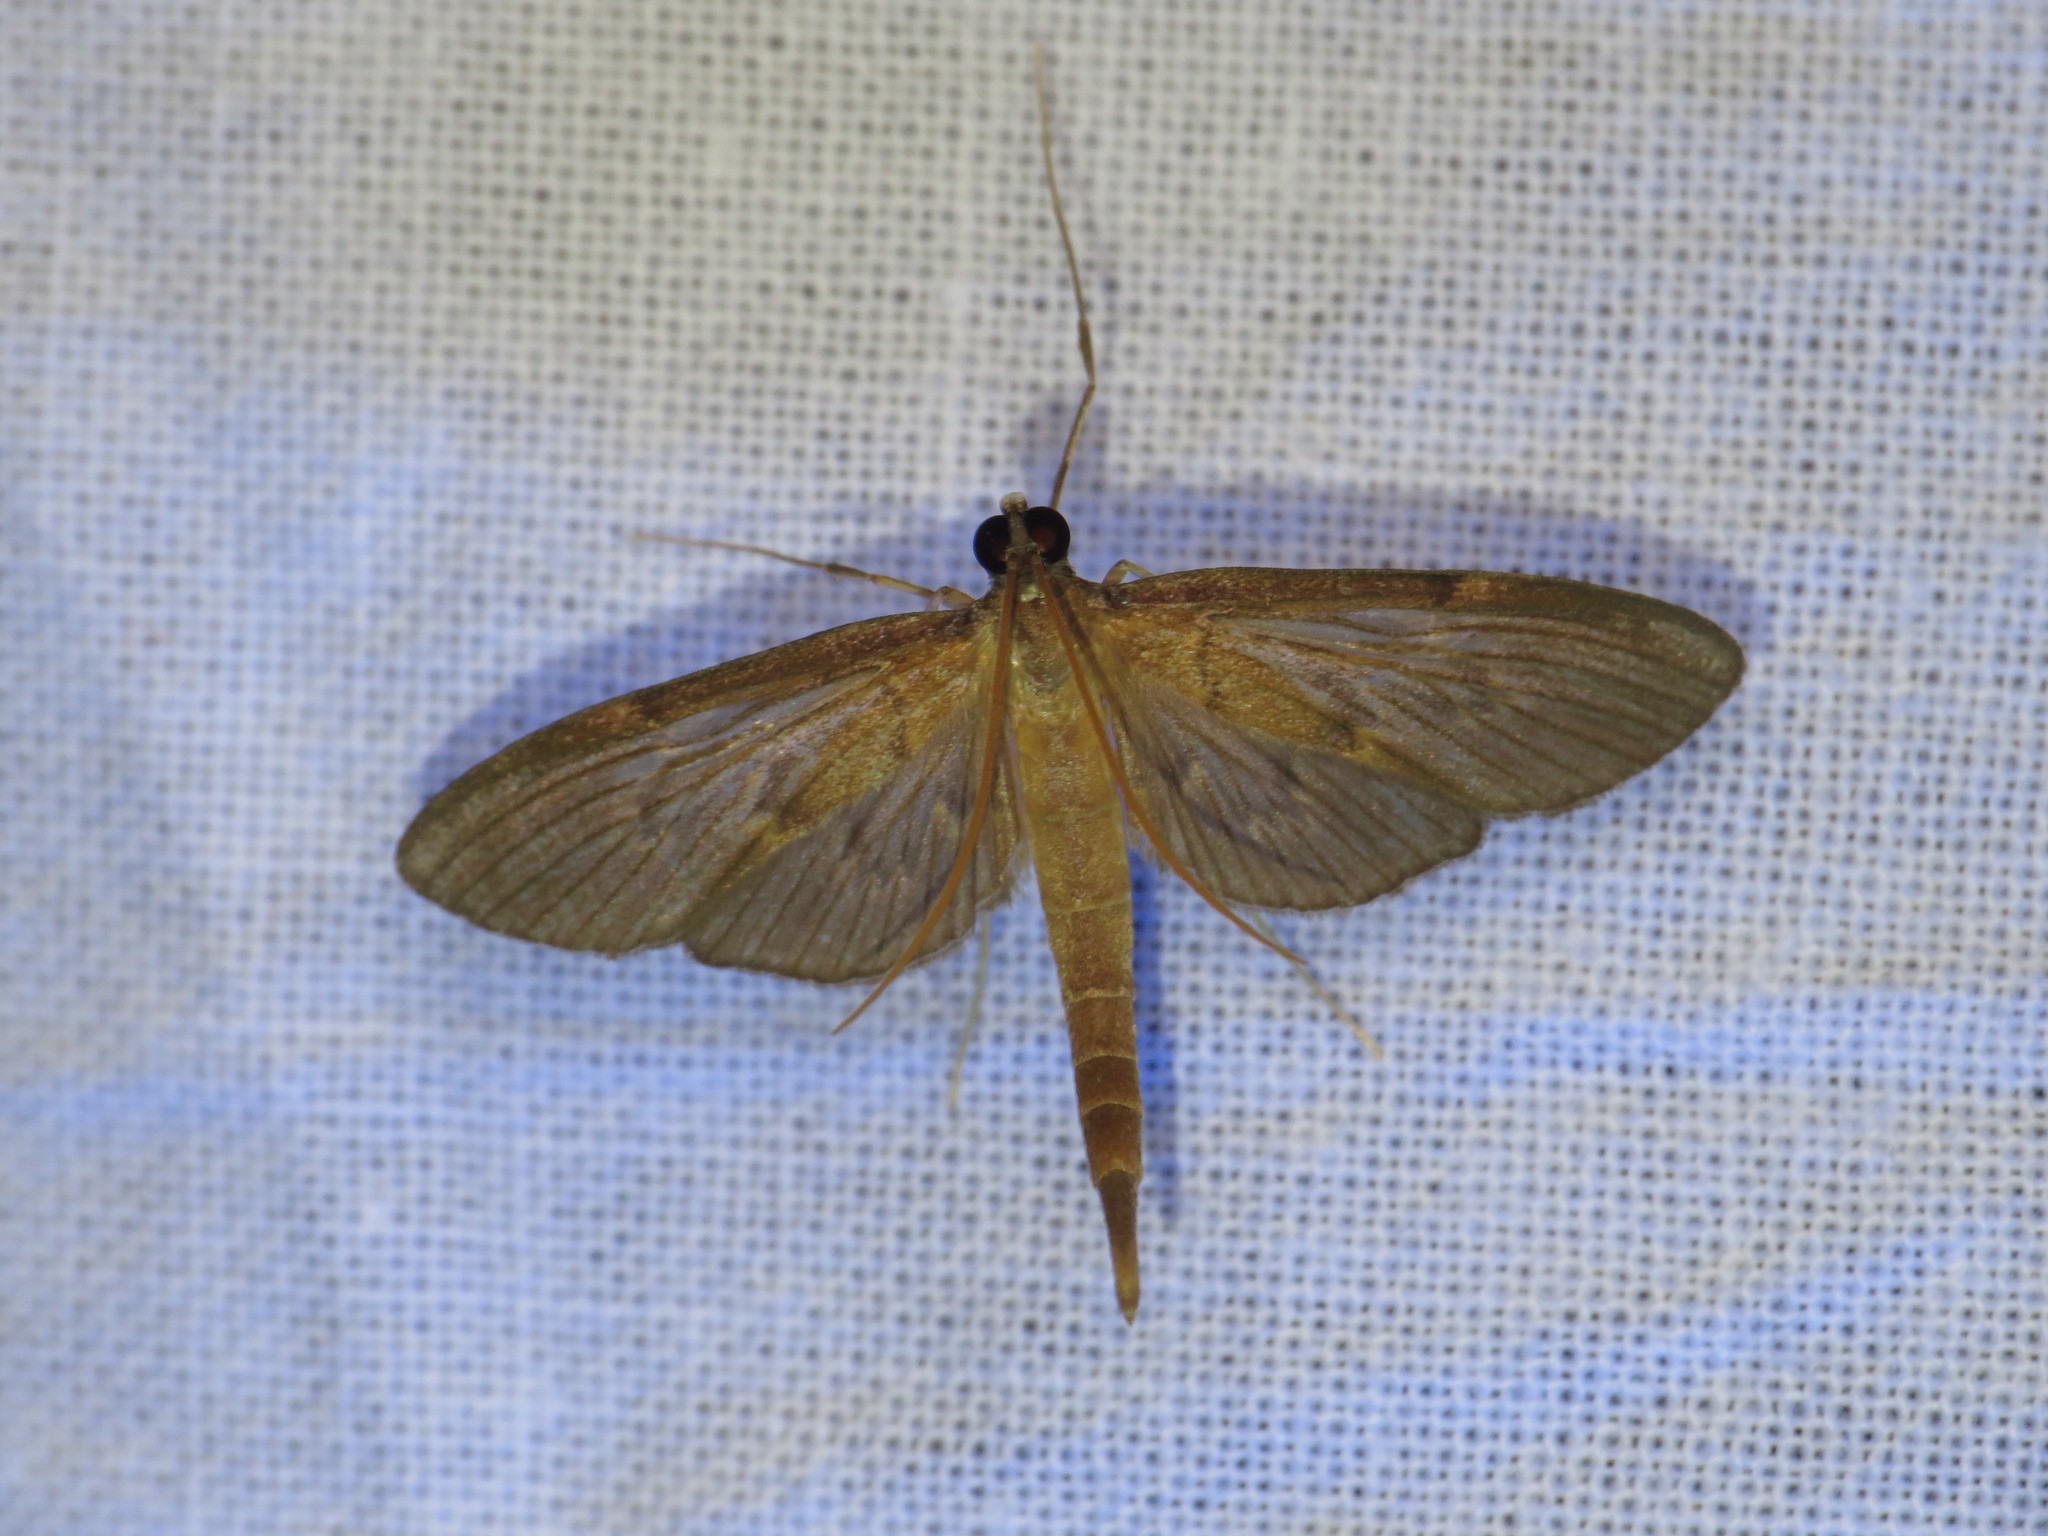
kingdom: Animalia
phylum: Arthropoda
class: Insecta
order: Lepidoptera
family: Crambidae
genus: Hymenoptychis
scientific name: Hymenoptychis sordida
